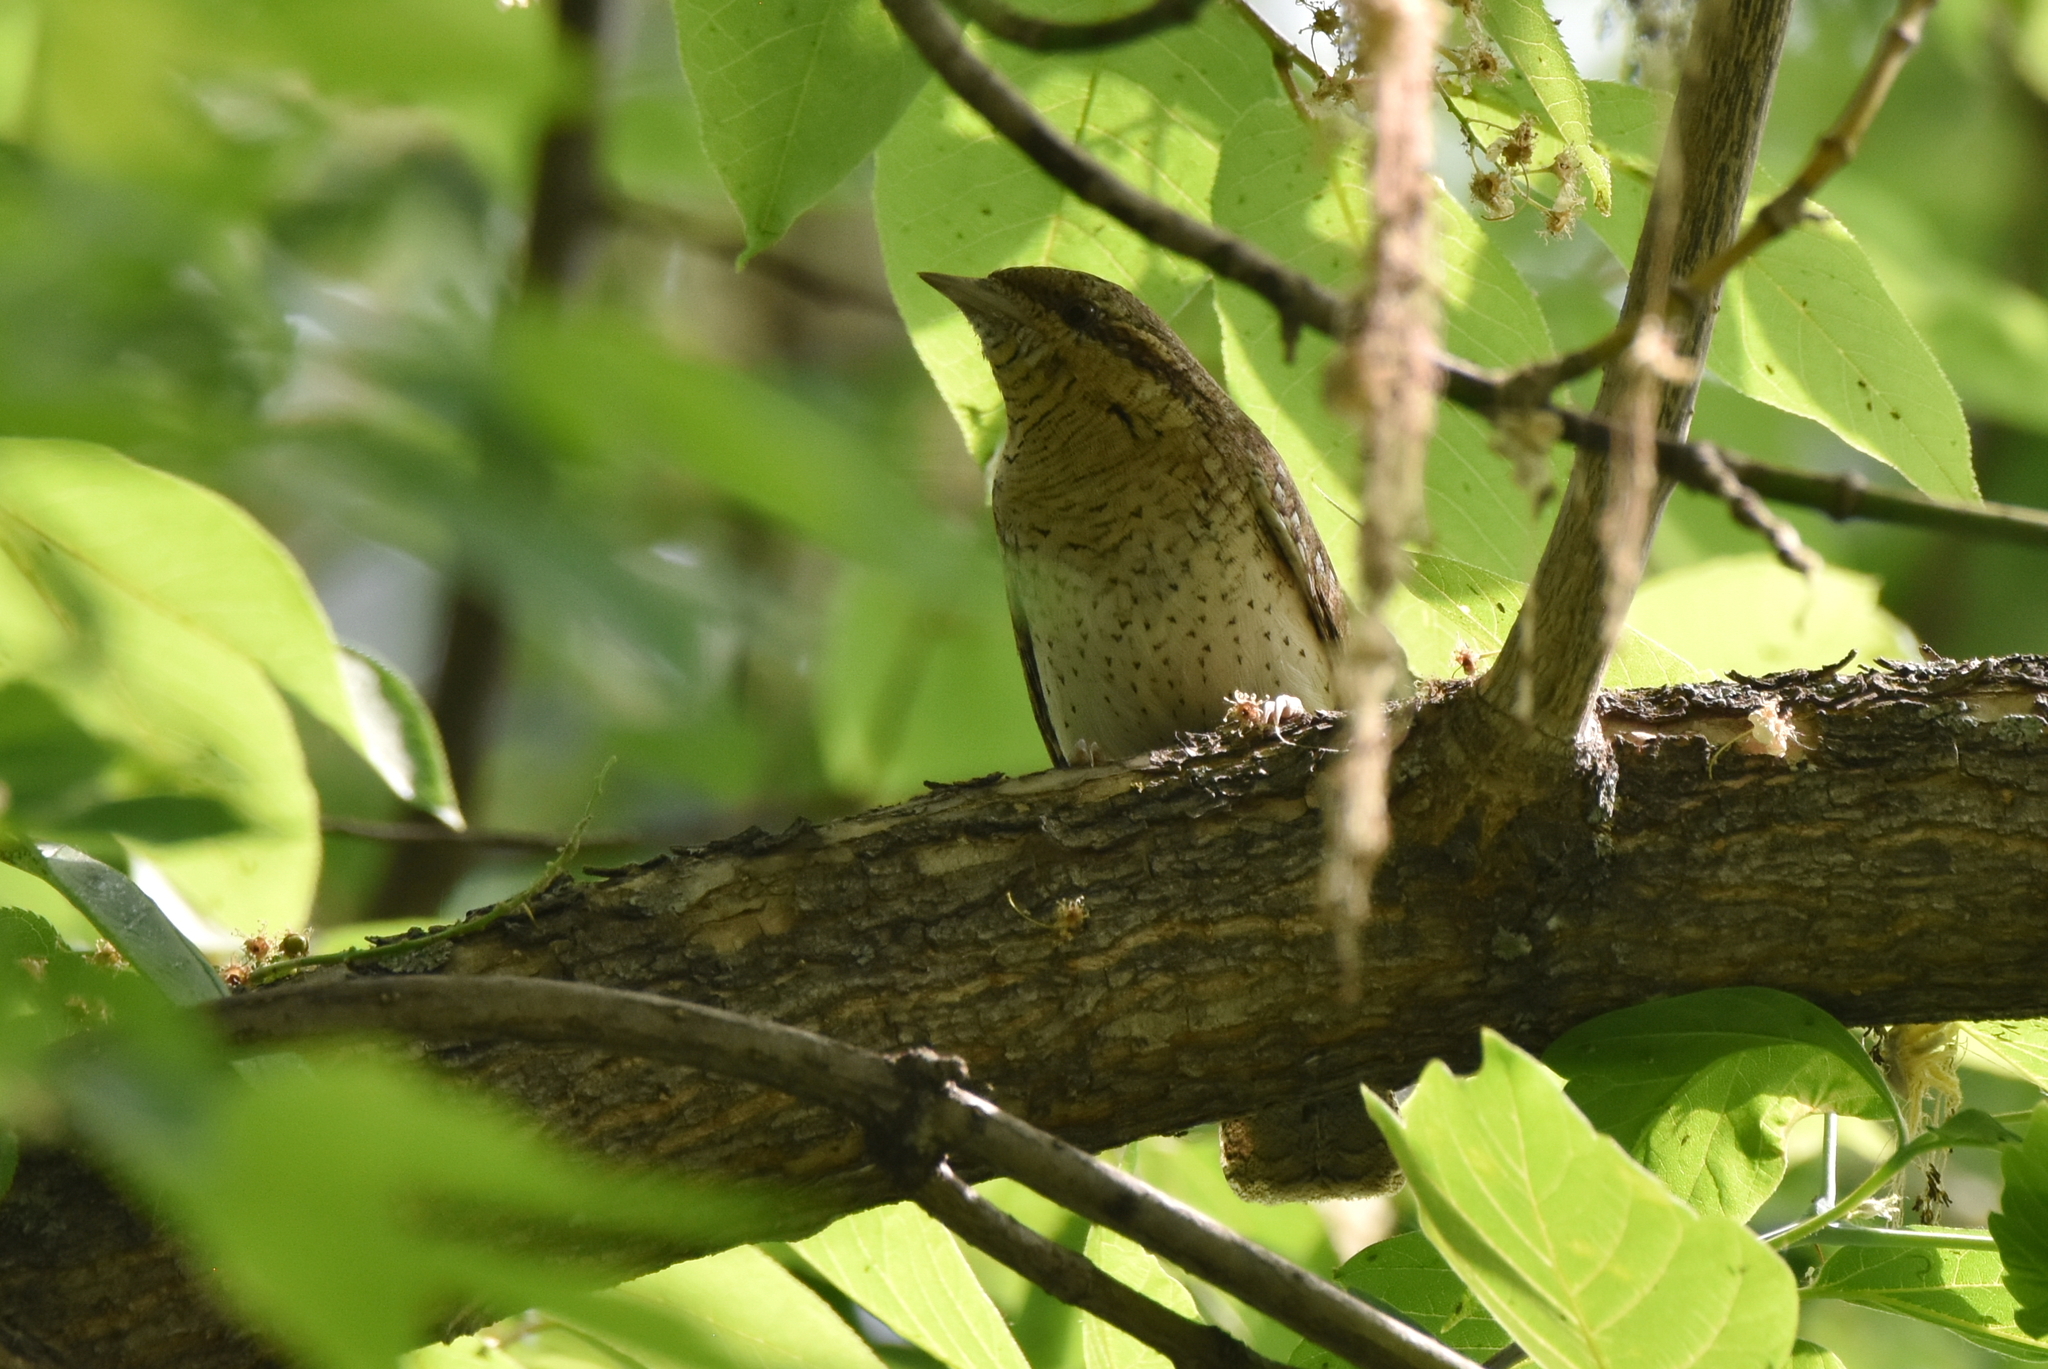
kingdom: Animalia
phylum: Chordata
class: Aves
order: Piciformes
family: Picidae
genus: Jynx
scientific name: Jynx torquilla
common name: Eurasian wryneck
